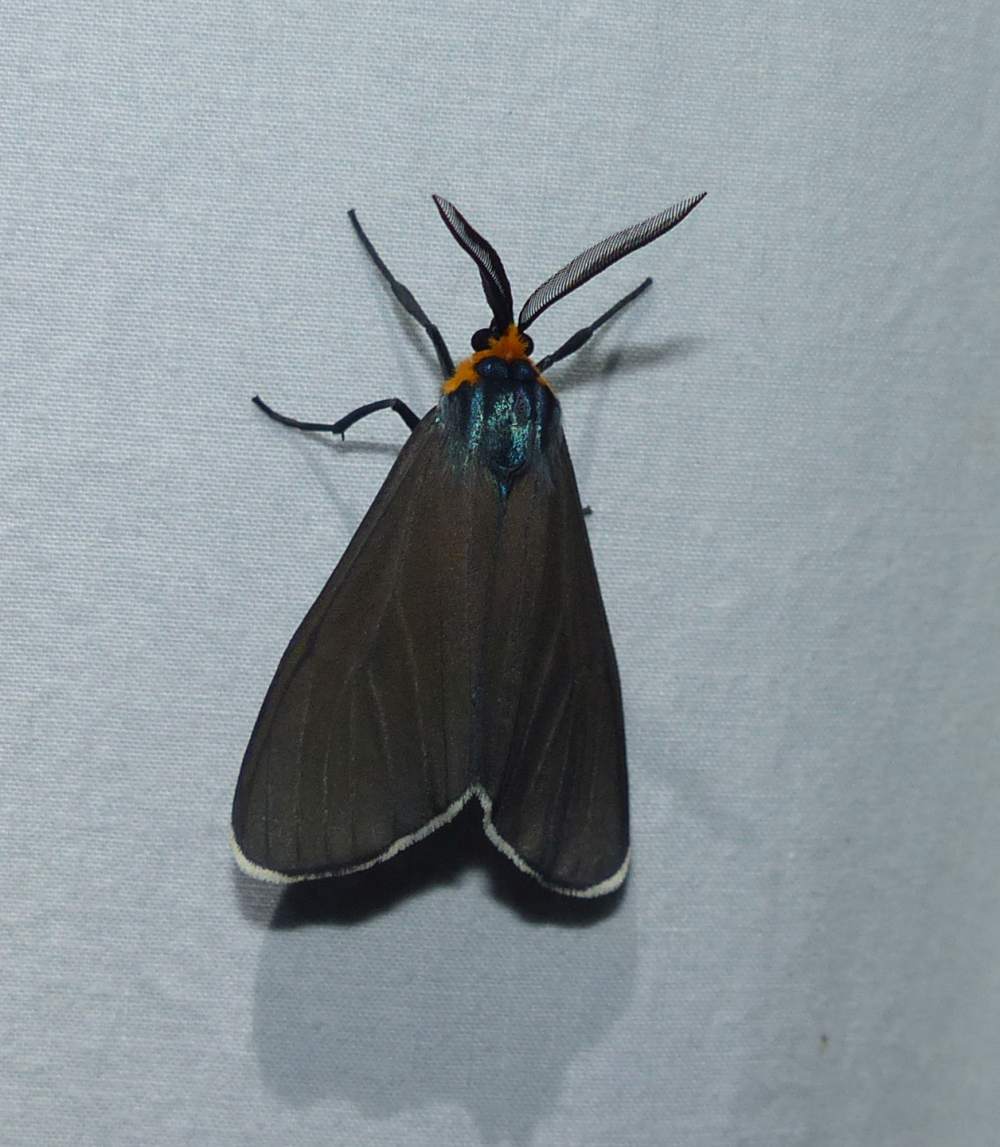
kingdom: Animalia
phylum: Arthropoda
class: Insecta
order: Lepidoptera
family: Erebidae
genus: Ctenucha
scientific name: Ctenucha virginica
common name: Virginia ctenucha moth
